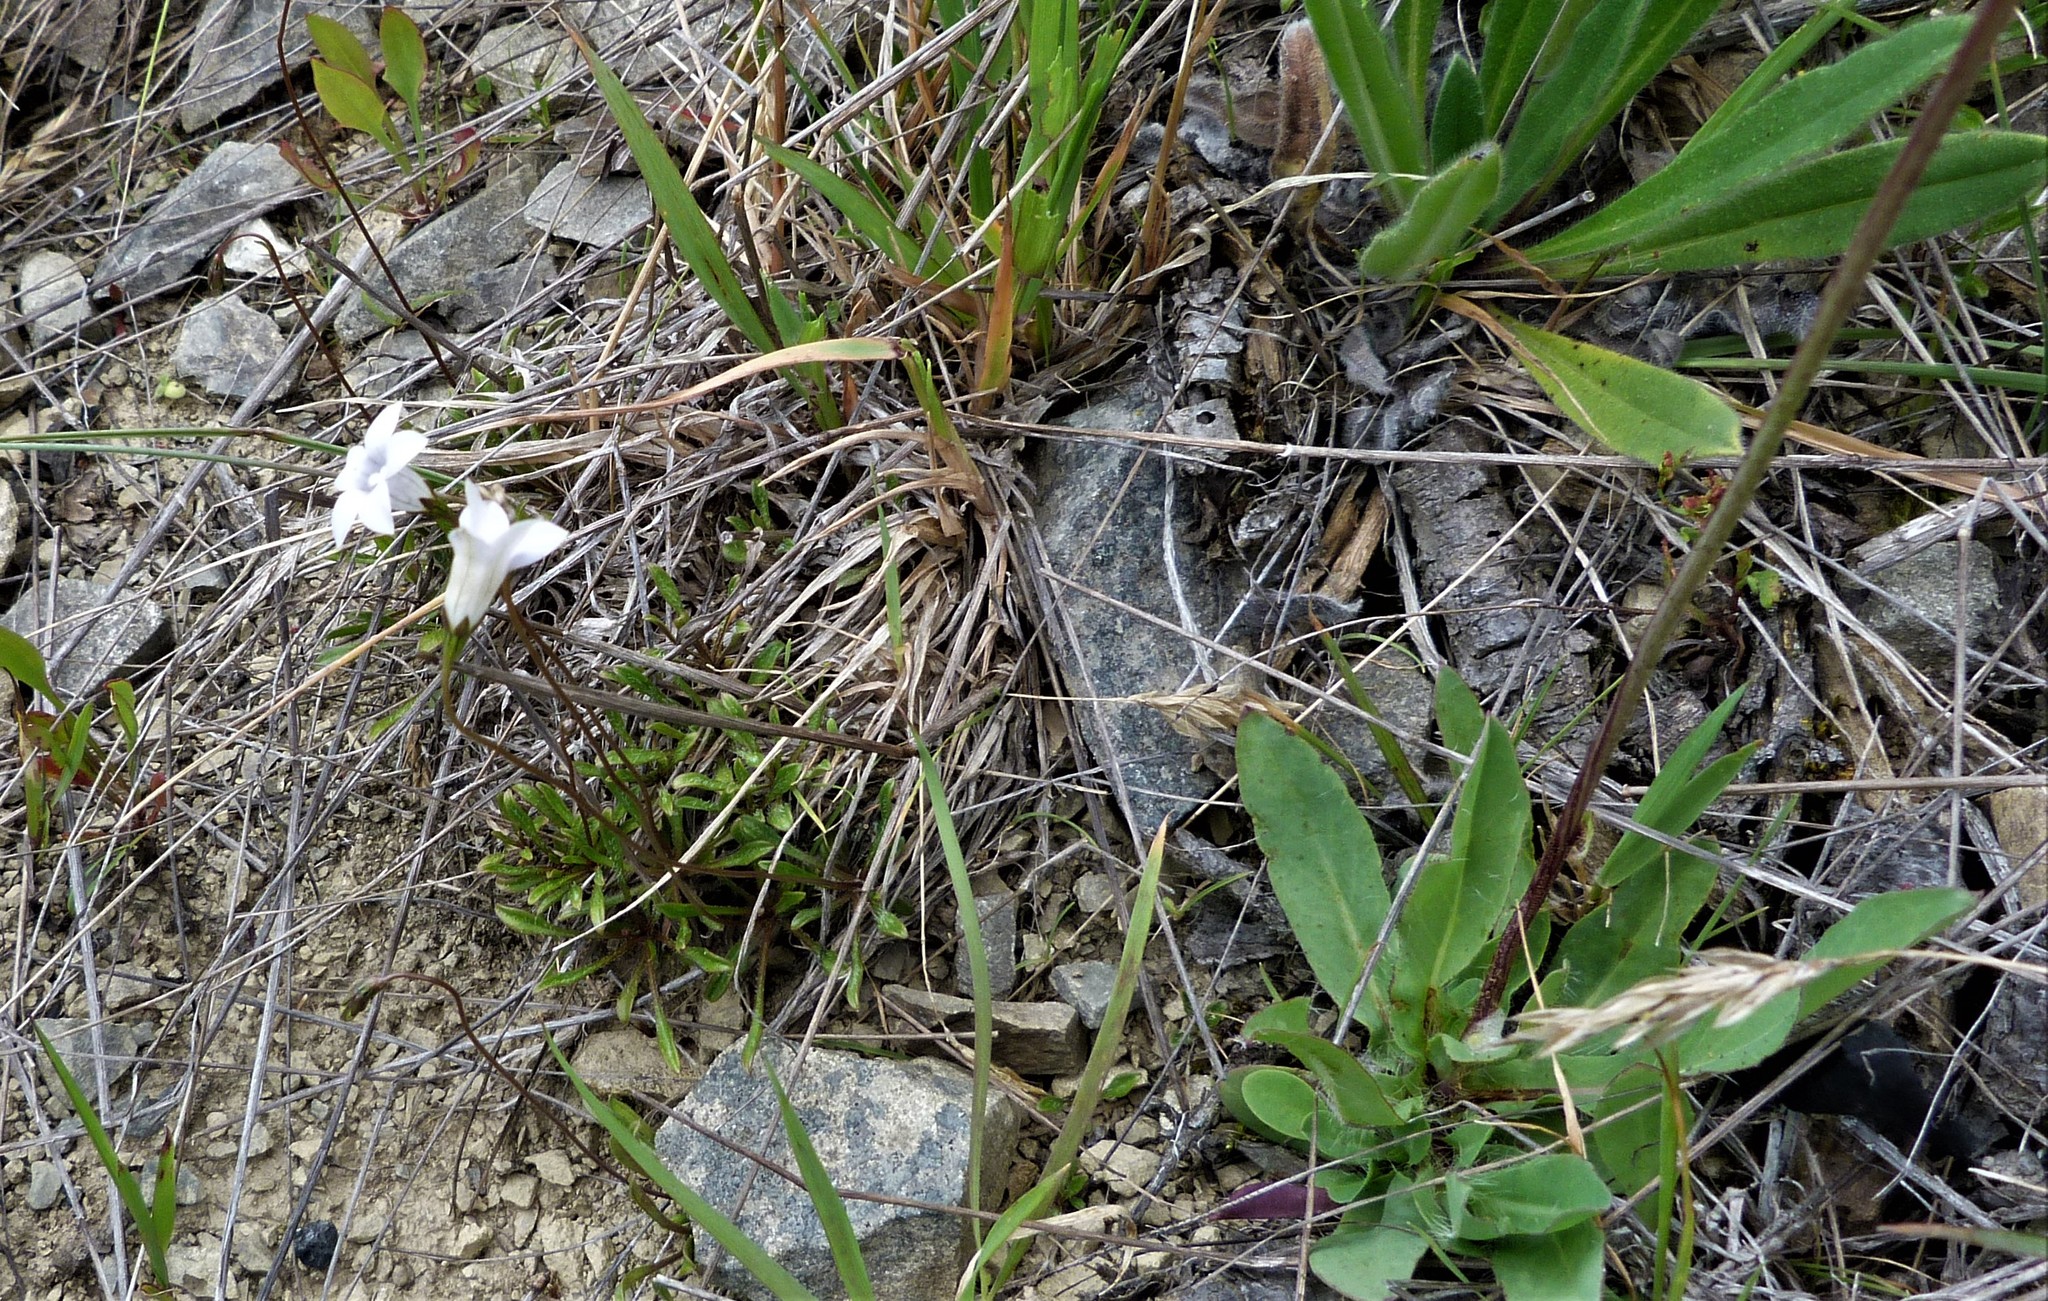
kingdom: Plantae
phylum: Tracheophyta
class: Magnoliopsida
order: Asterales
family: Campanulaceae
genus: Wahlenbergia
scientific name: Wahlenbergia albomarginata
